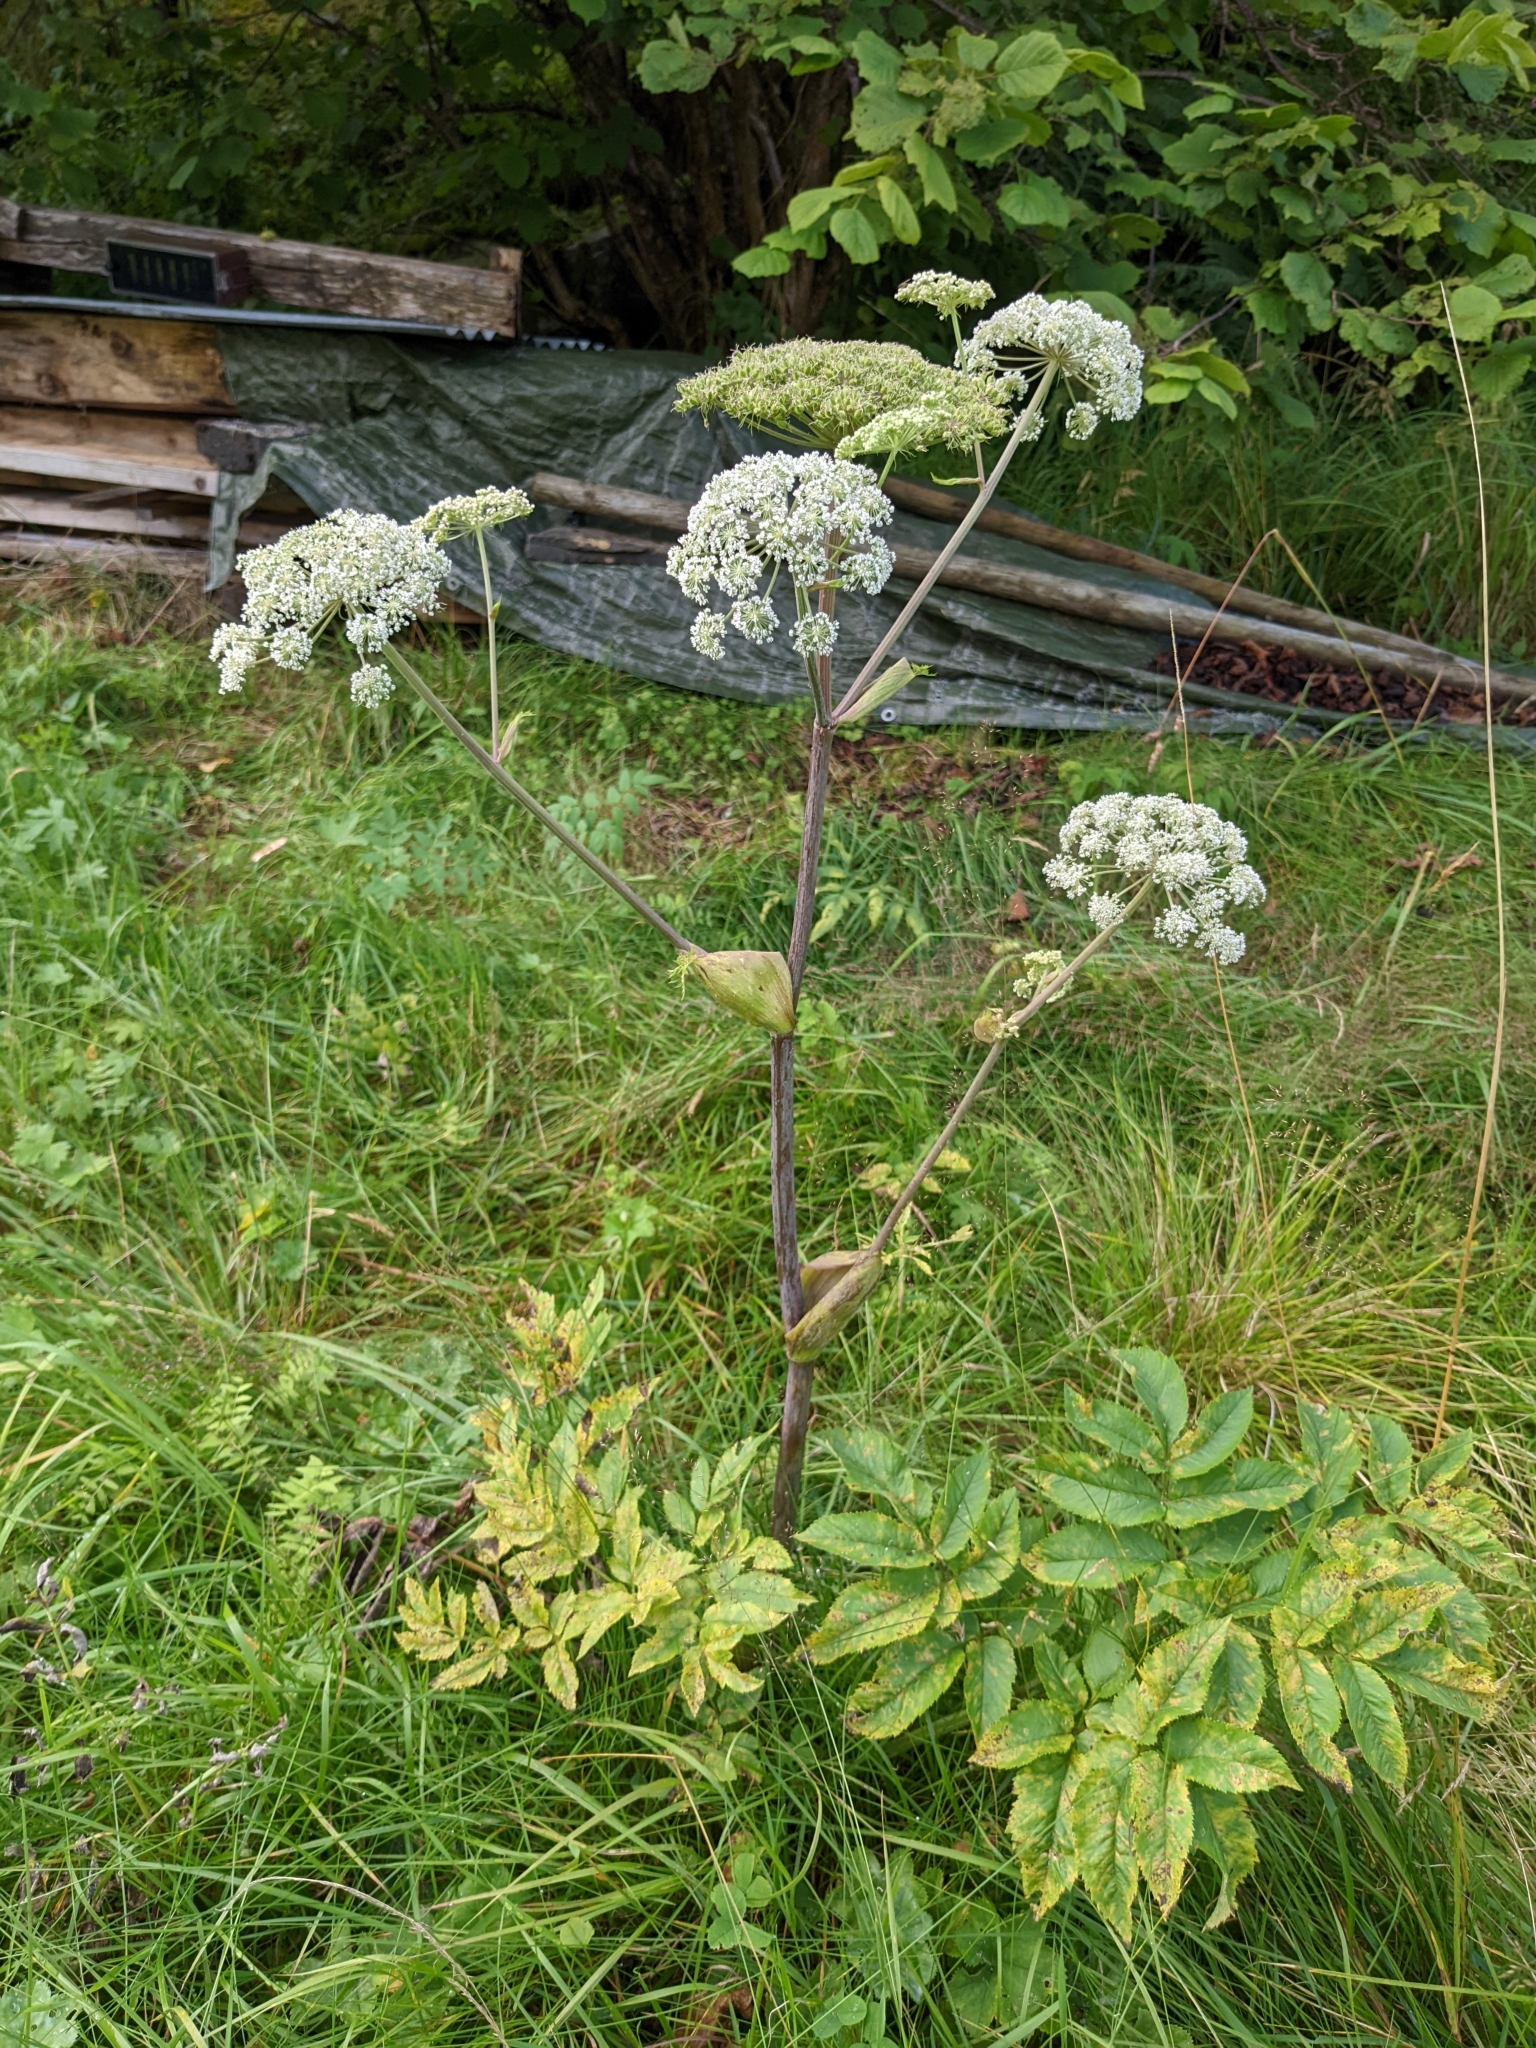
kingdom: Plantae
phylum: Tracheophyta
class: Magnoliopsida
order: Apiales
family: Apiaceae
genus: Angelica
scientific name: Angelica sylvestris
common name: Wild angelica
